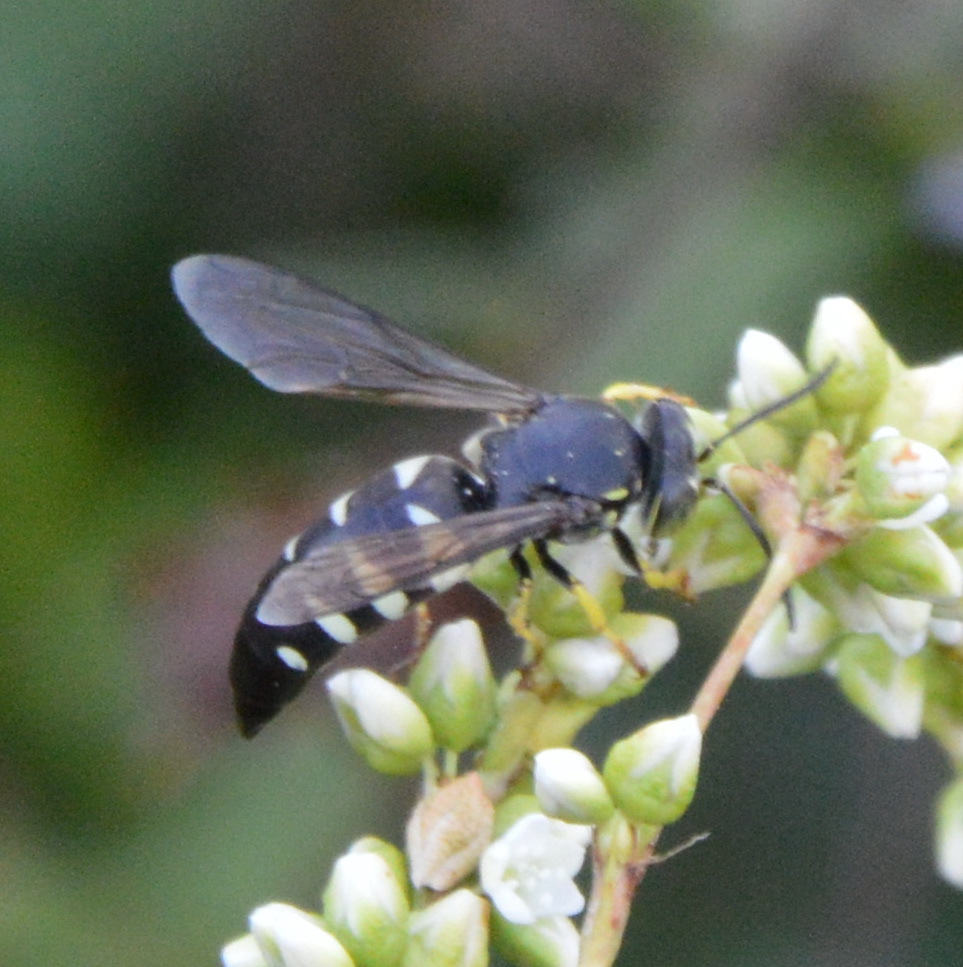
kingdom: Animalia
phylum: Arthropoda
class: Insecta
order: Hymenoptera
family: Crabronidae
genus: Bicyrtes
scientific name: Bicyrtes quadrifasciatus
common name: Four-banded stink bug hunter wasp
